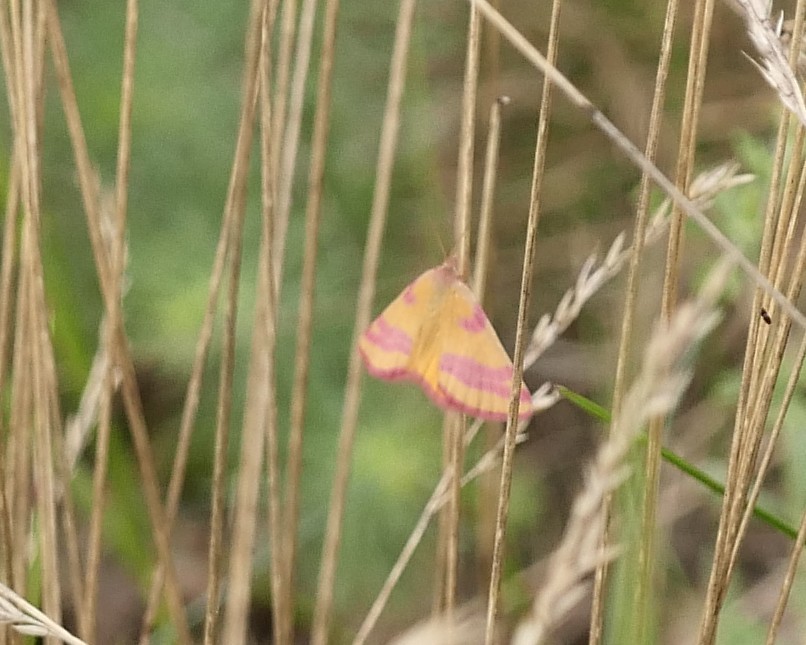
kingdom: Animalia
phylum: Arthropoda
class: Insecta
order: Lepidoptera
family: Geometridae
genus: Lythria
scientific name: Lythria cruentaria
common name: Purple-barred yellow
